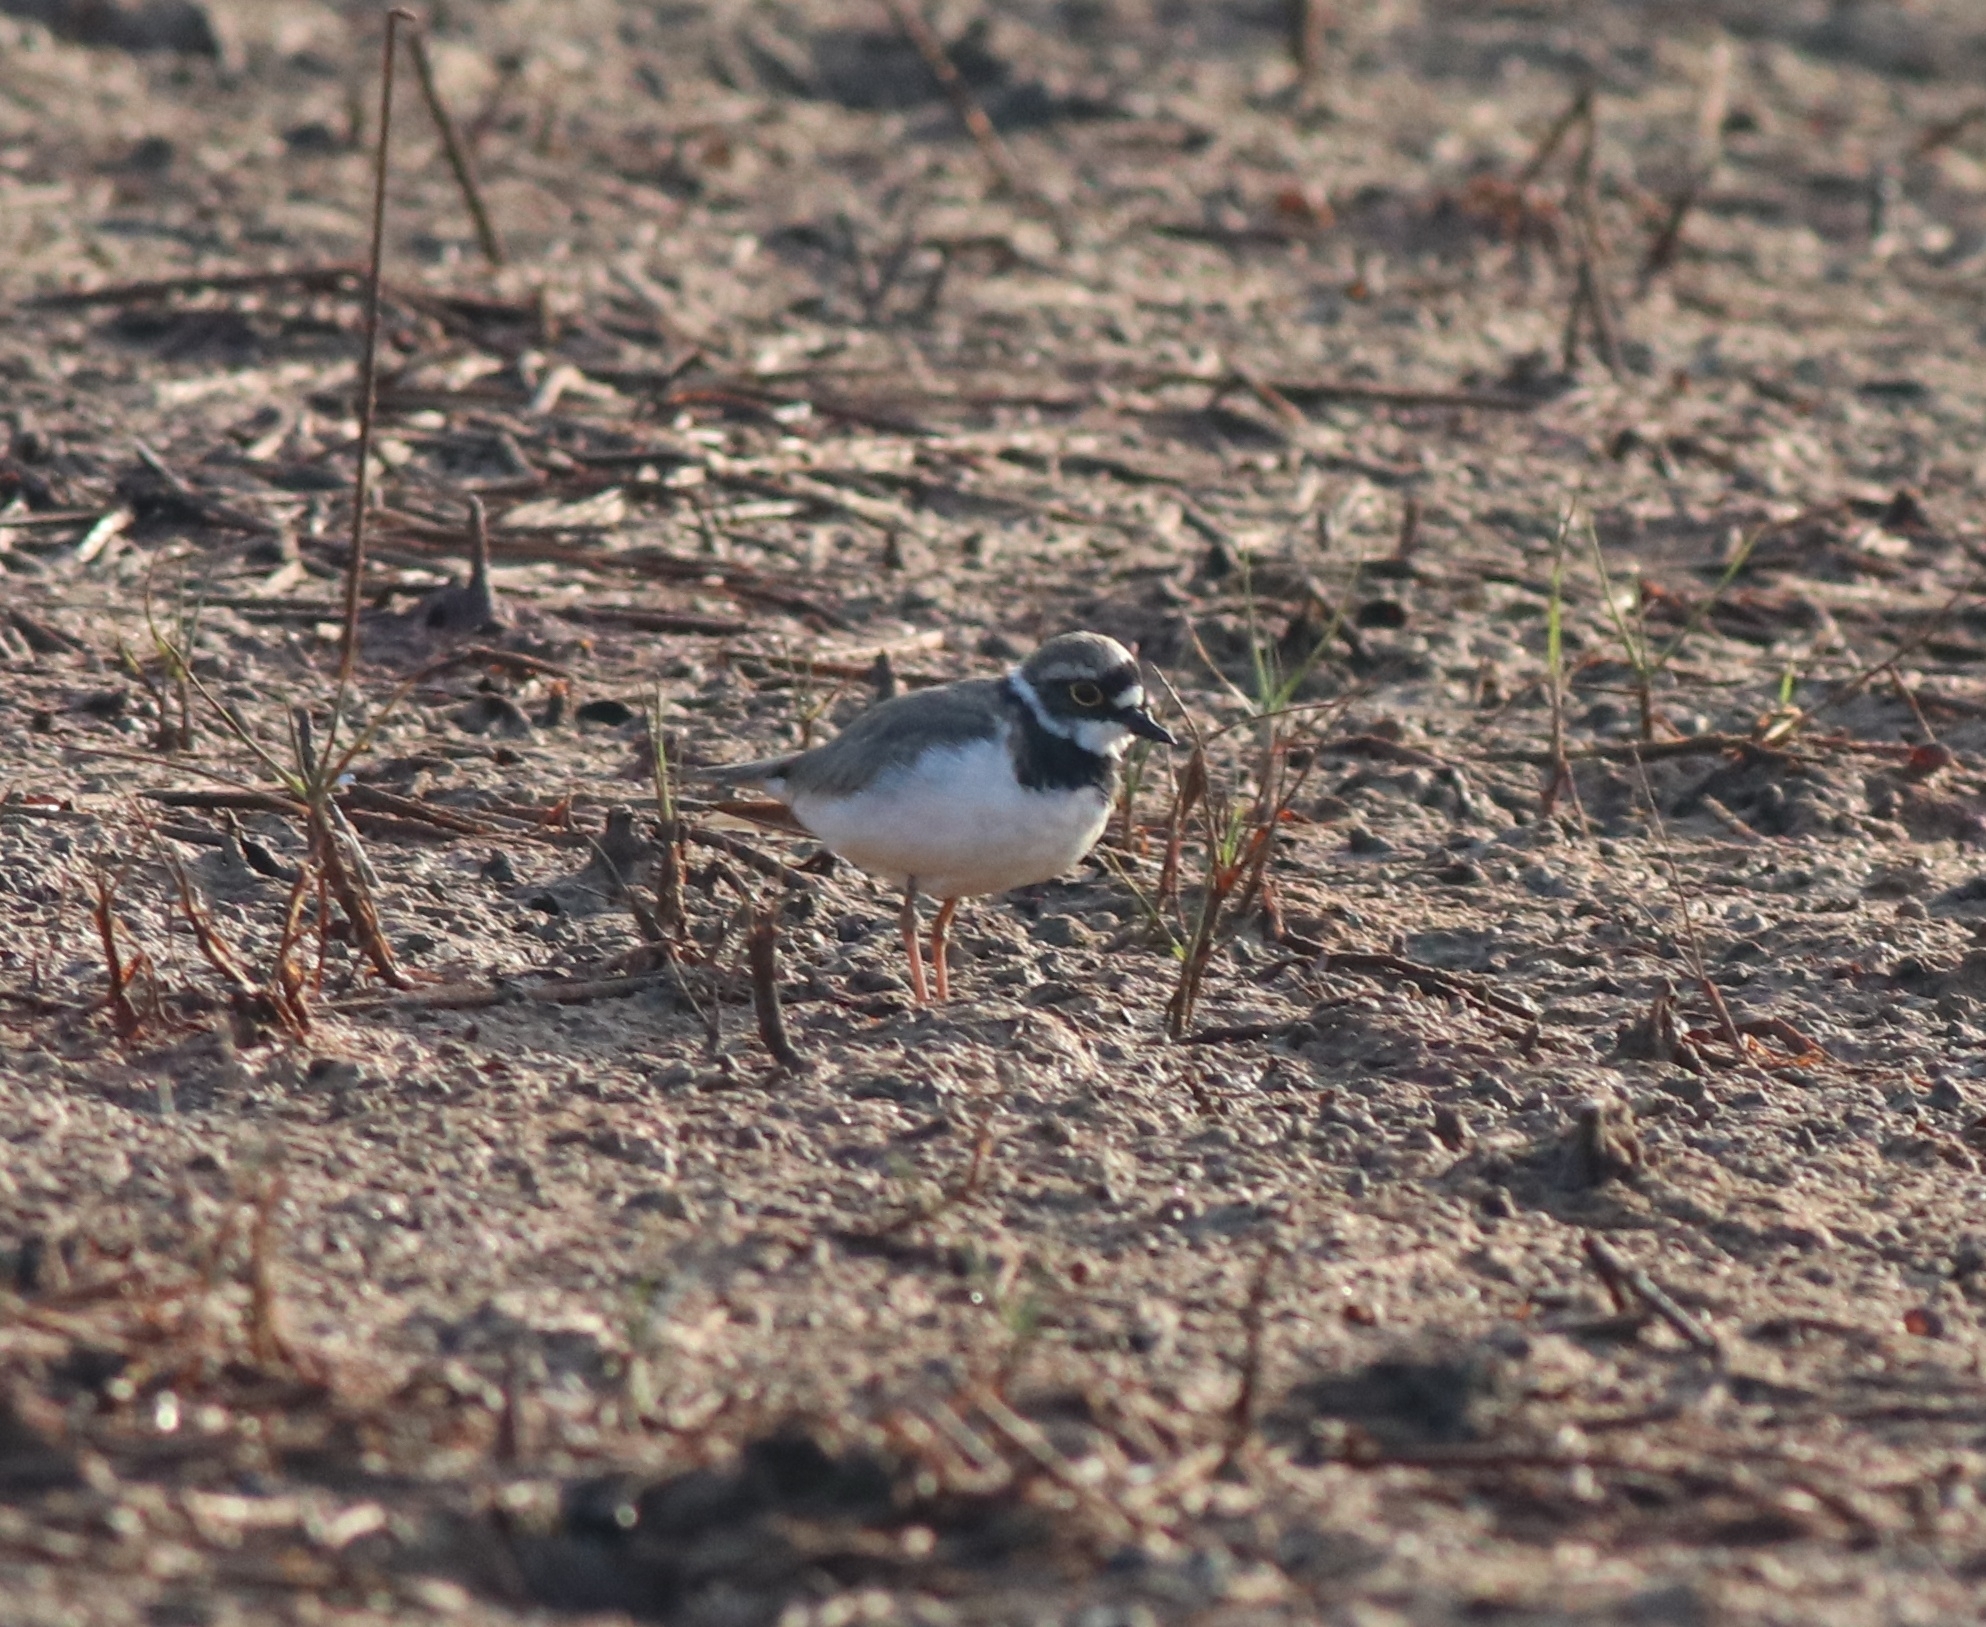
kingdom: Animalia
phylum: Chordata
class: Aves
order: Charadriiformes
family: Charadriidae
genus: Charadrius
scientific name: Charadrius dubius
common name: Little ringed plover
